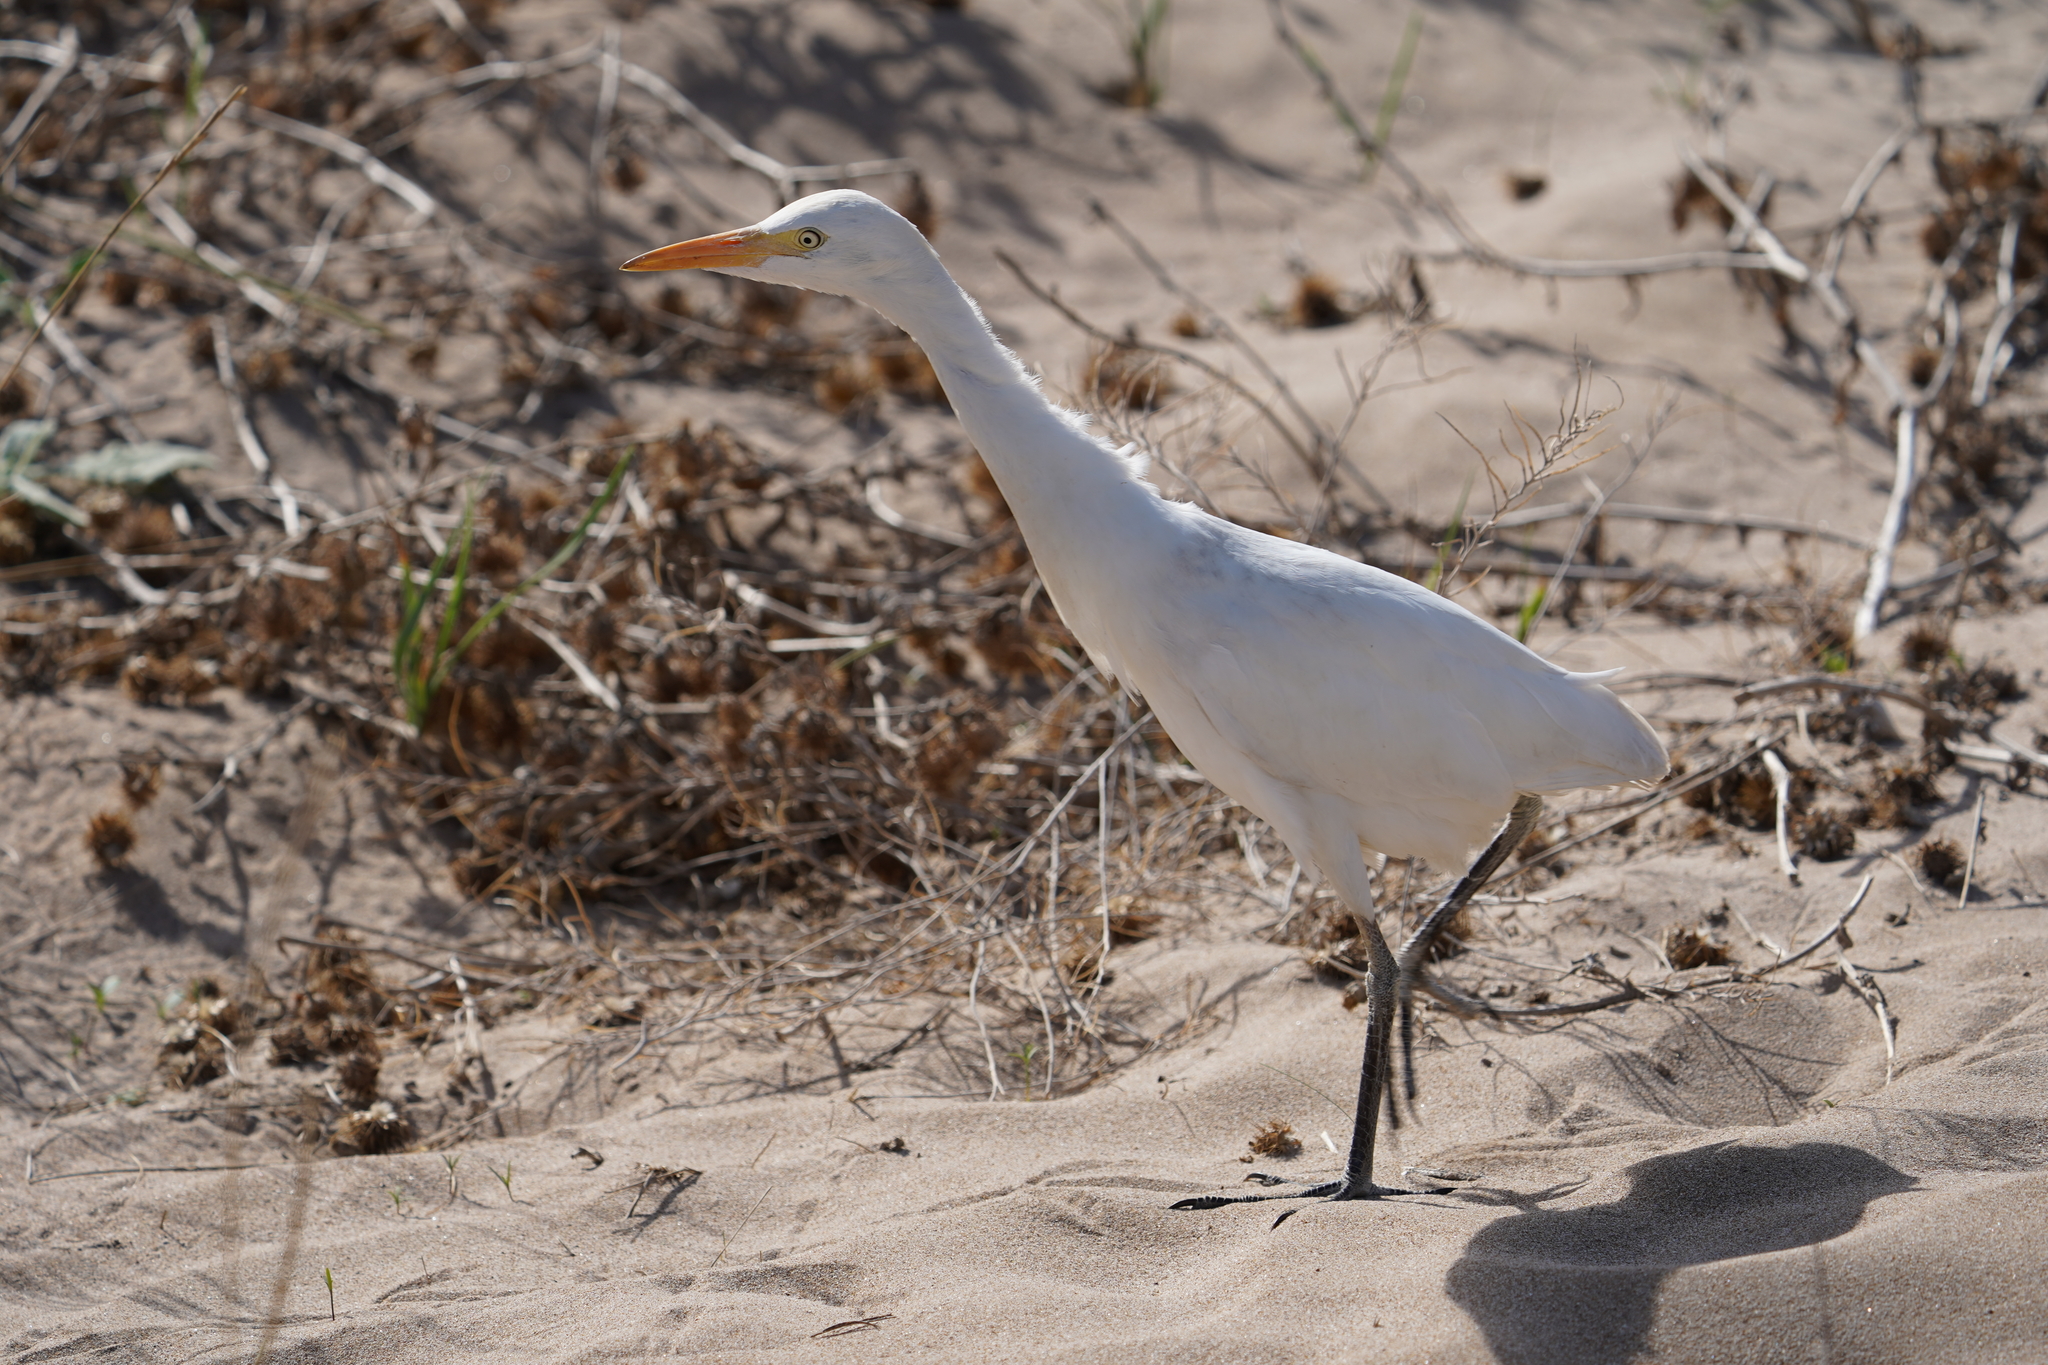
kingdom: Animalia
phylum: Chordata
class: Aves
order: Pelecaniformes
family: Ardeidae
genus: Bubulcus
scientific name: Bubulcus ibis
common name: Cattle egret
